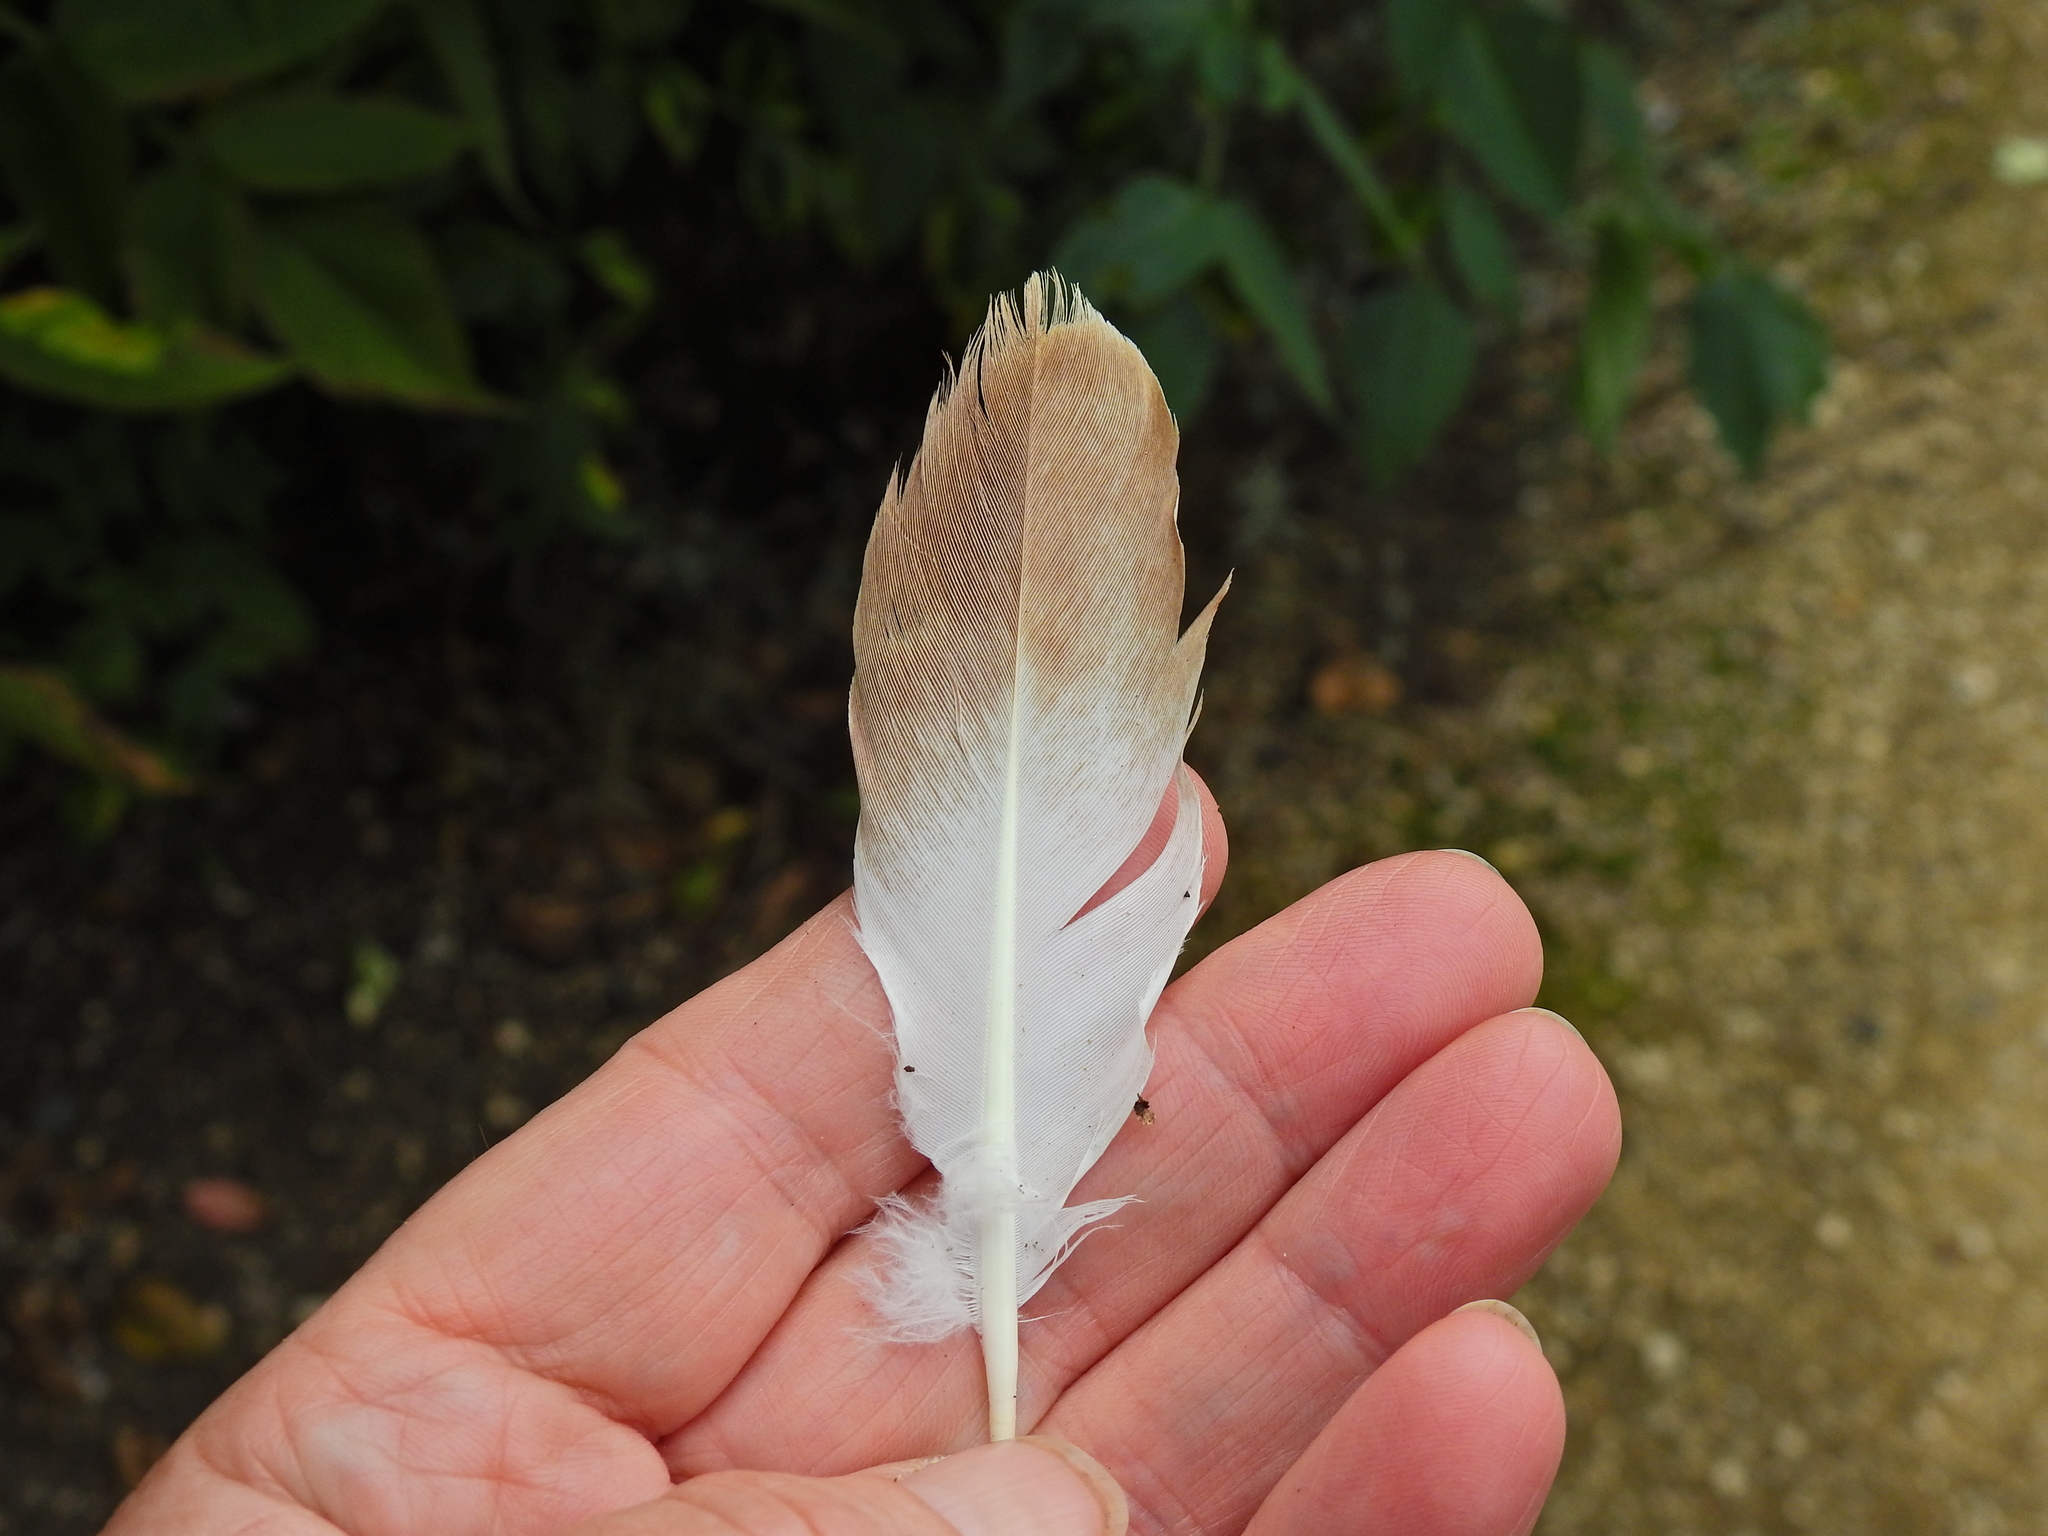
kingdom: Animalia
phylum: Chordata
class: Aves
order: Columbiformes
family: Columbidae
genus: Columba
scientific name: Columba livia
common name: Rock pigeon
